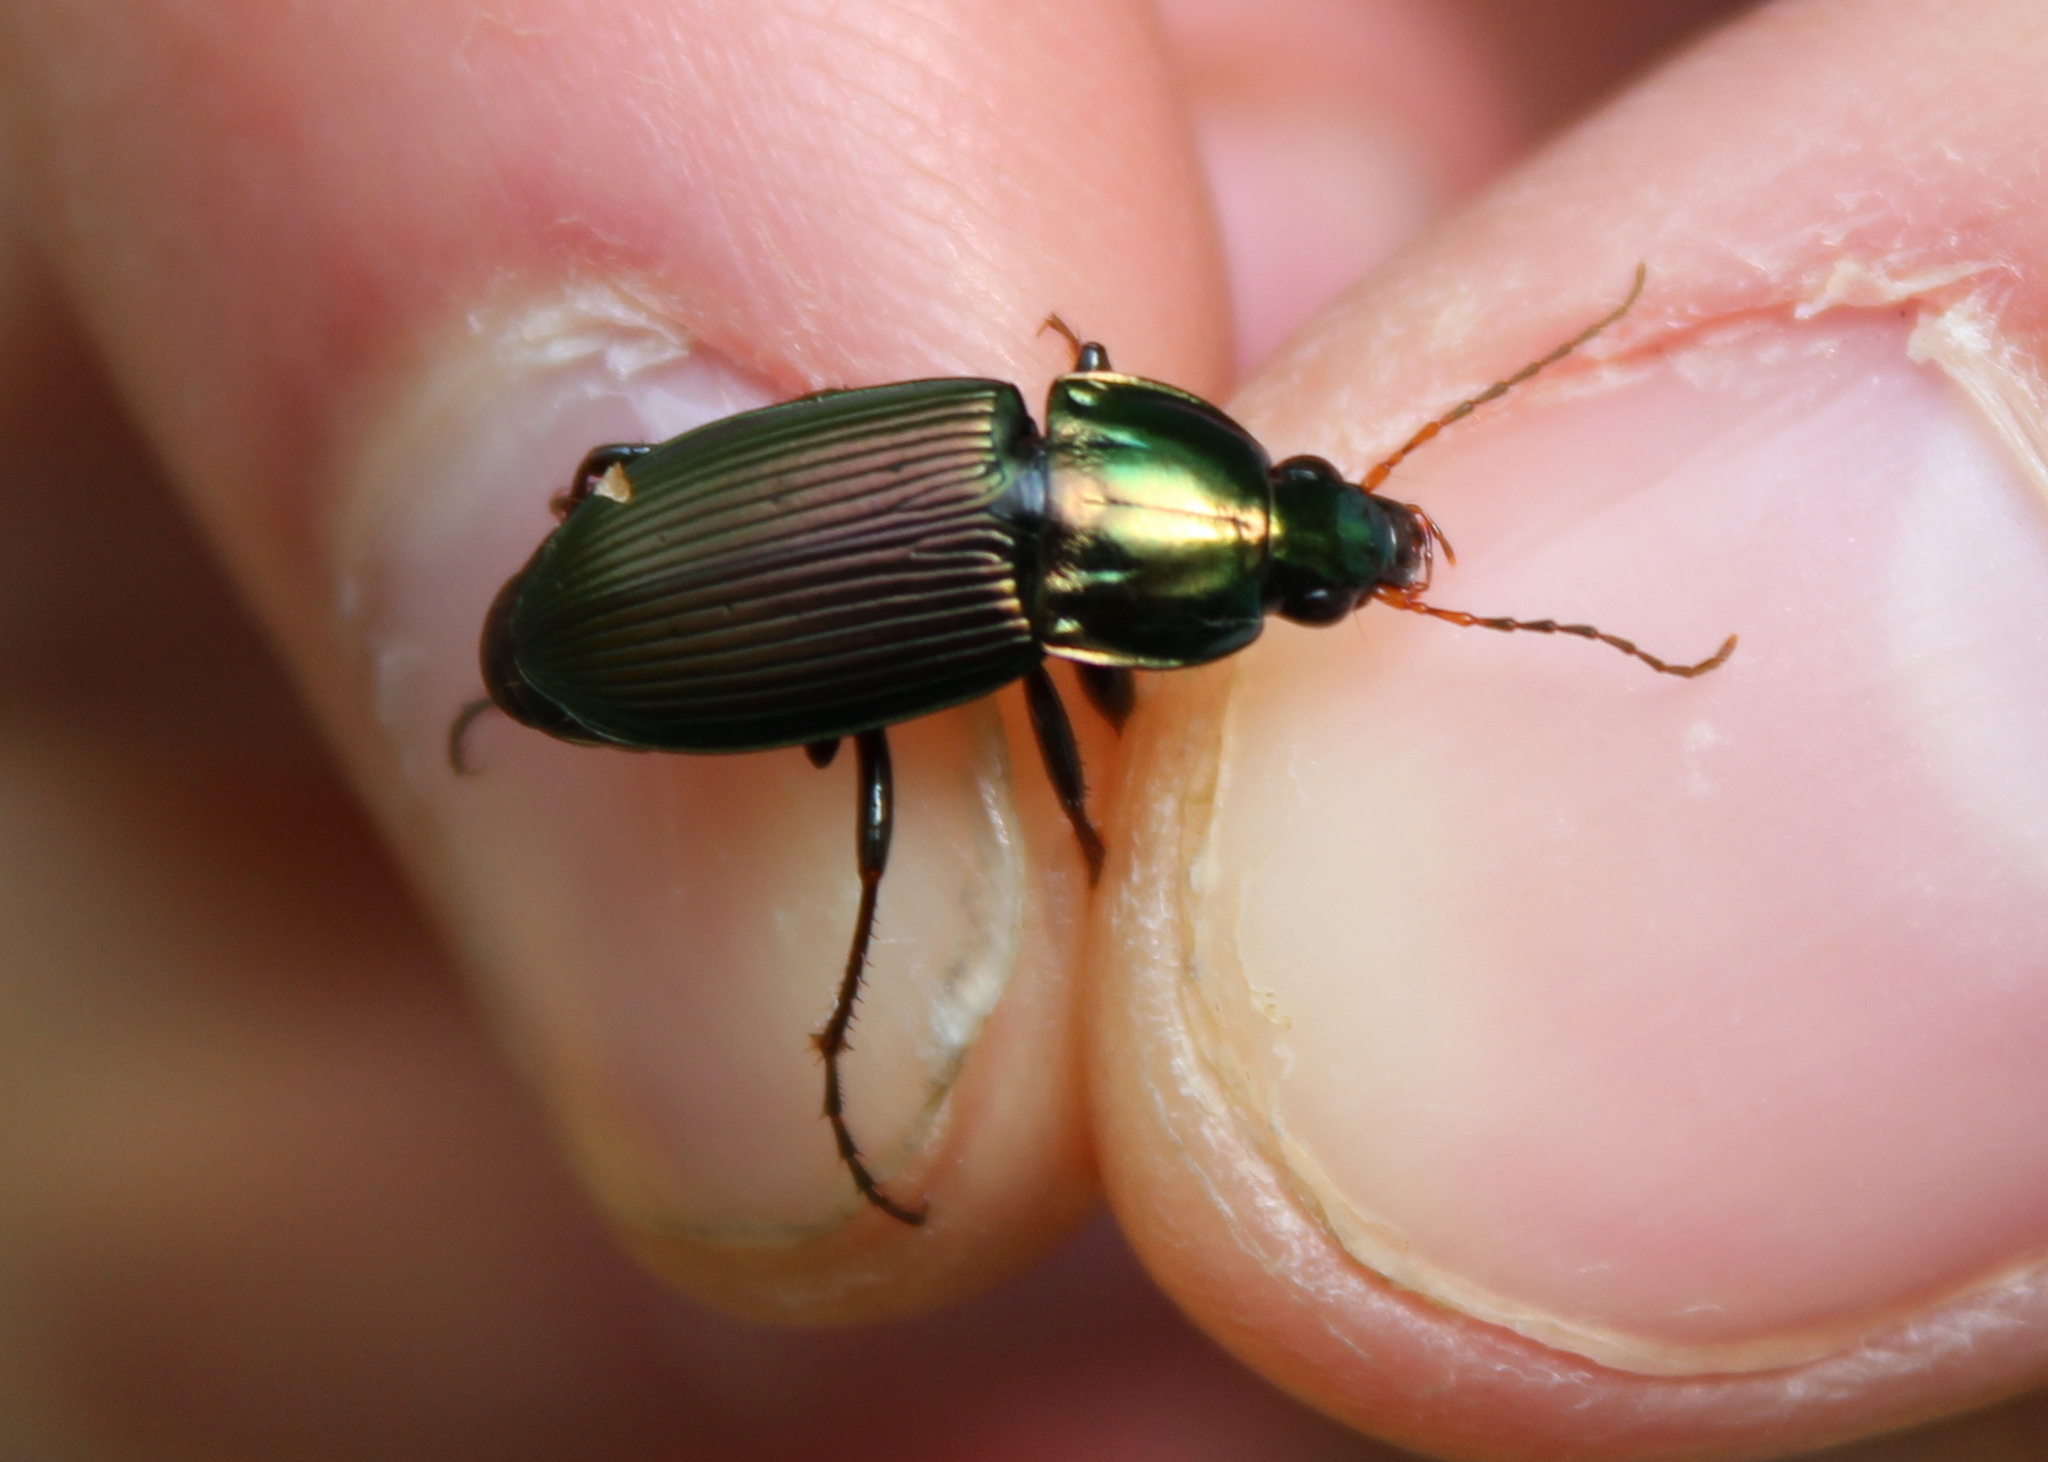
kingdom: Animalia
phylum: Arthropoda
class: Insecta
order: Coleoptera
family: Carabidae
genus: Poecilus
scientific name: Poecilus lucublandus
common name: Woodland ground beetle
